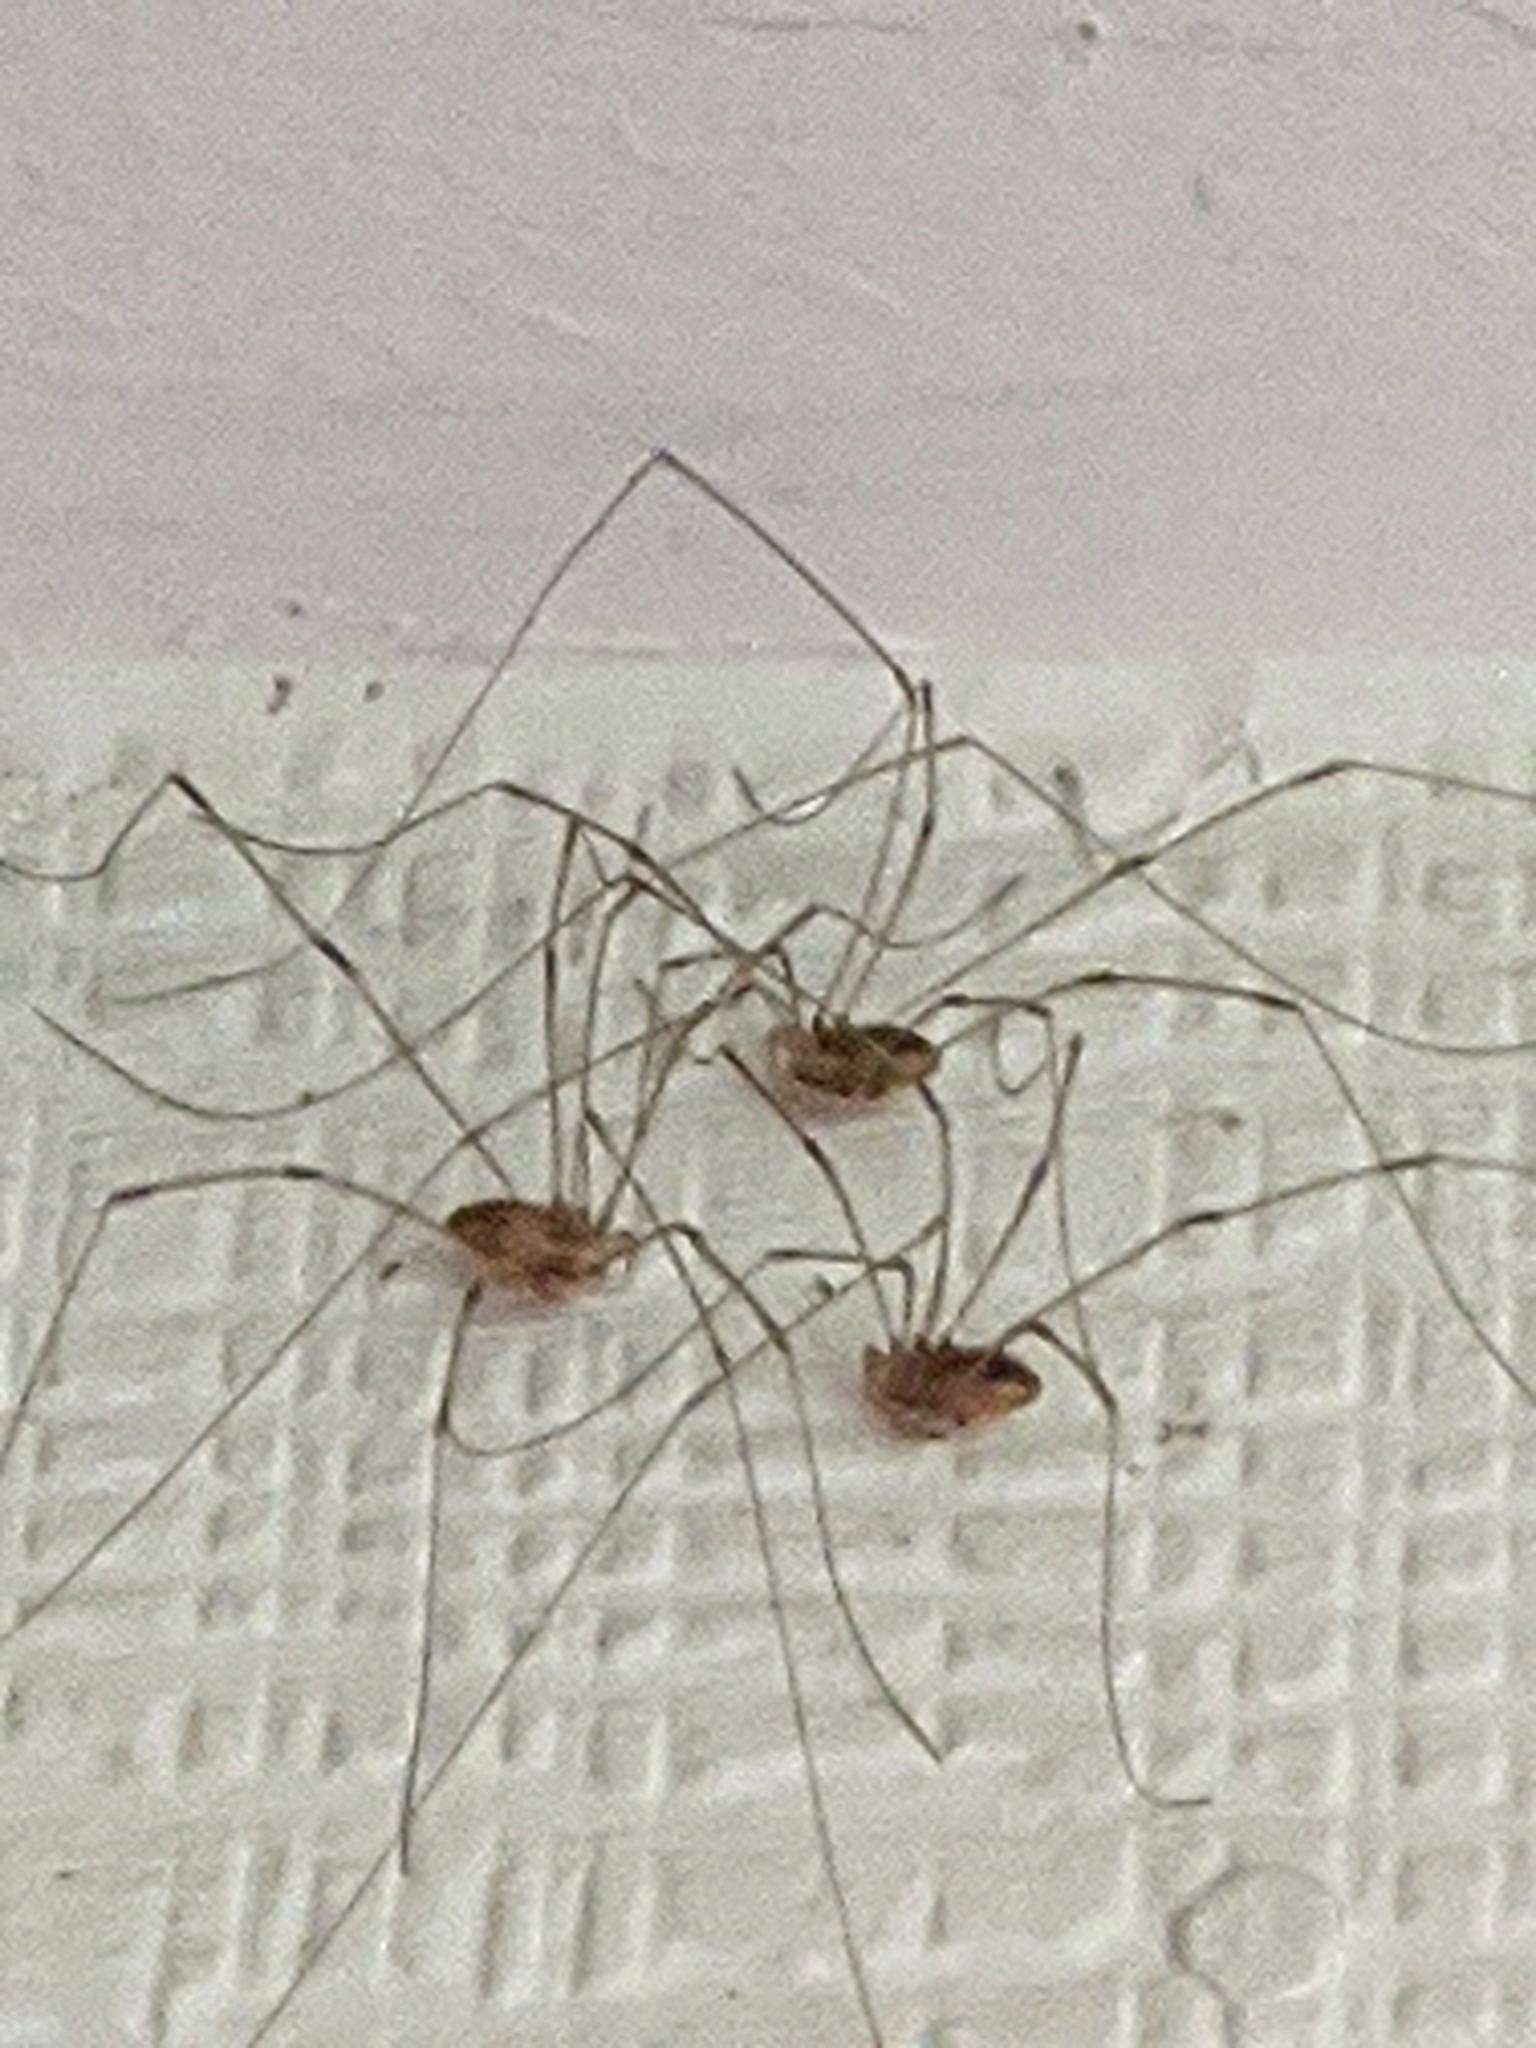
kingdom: Animalia
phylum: Arthropoda
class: Arachnida
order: Opiliones
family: Sclerosomatidae
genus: Leiobunum
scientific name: Leiobunum vittatum
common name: Eastern harvestman
